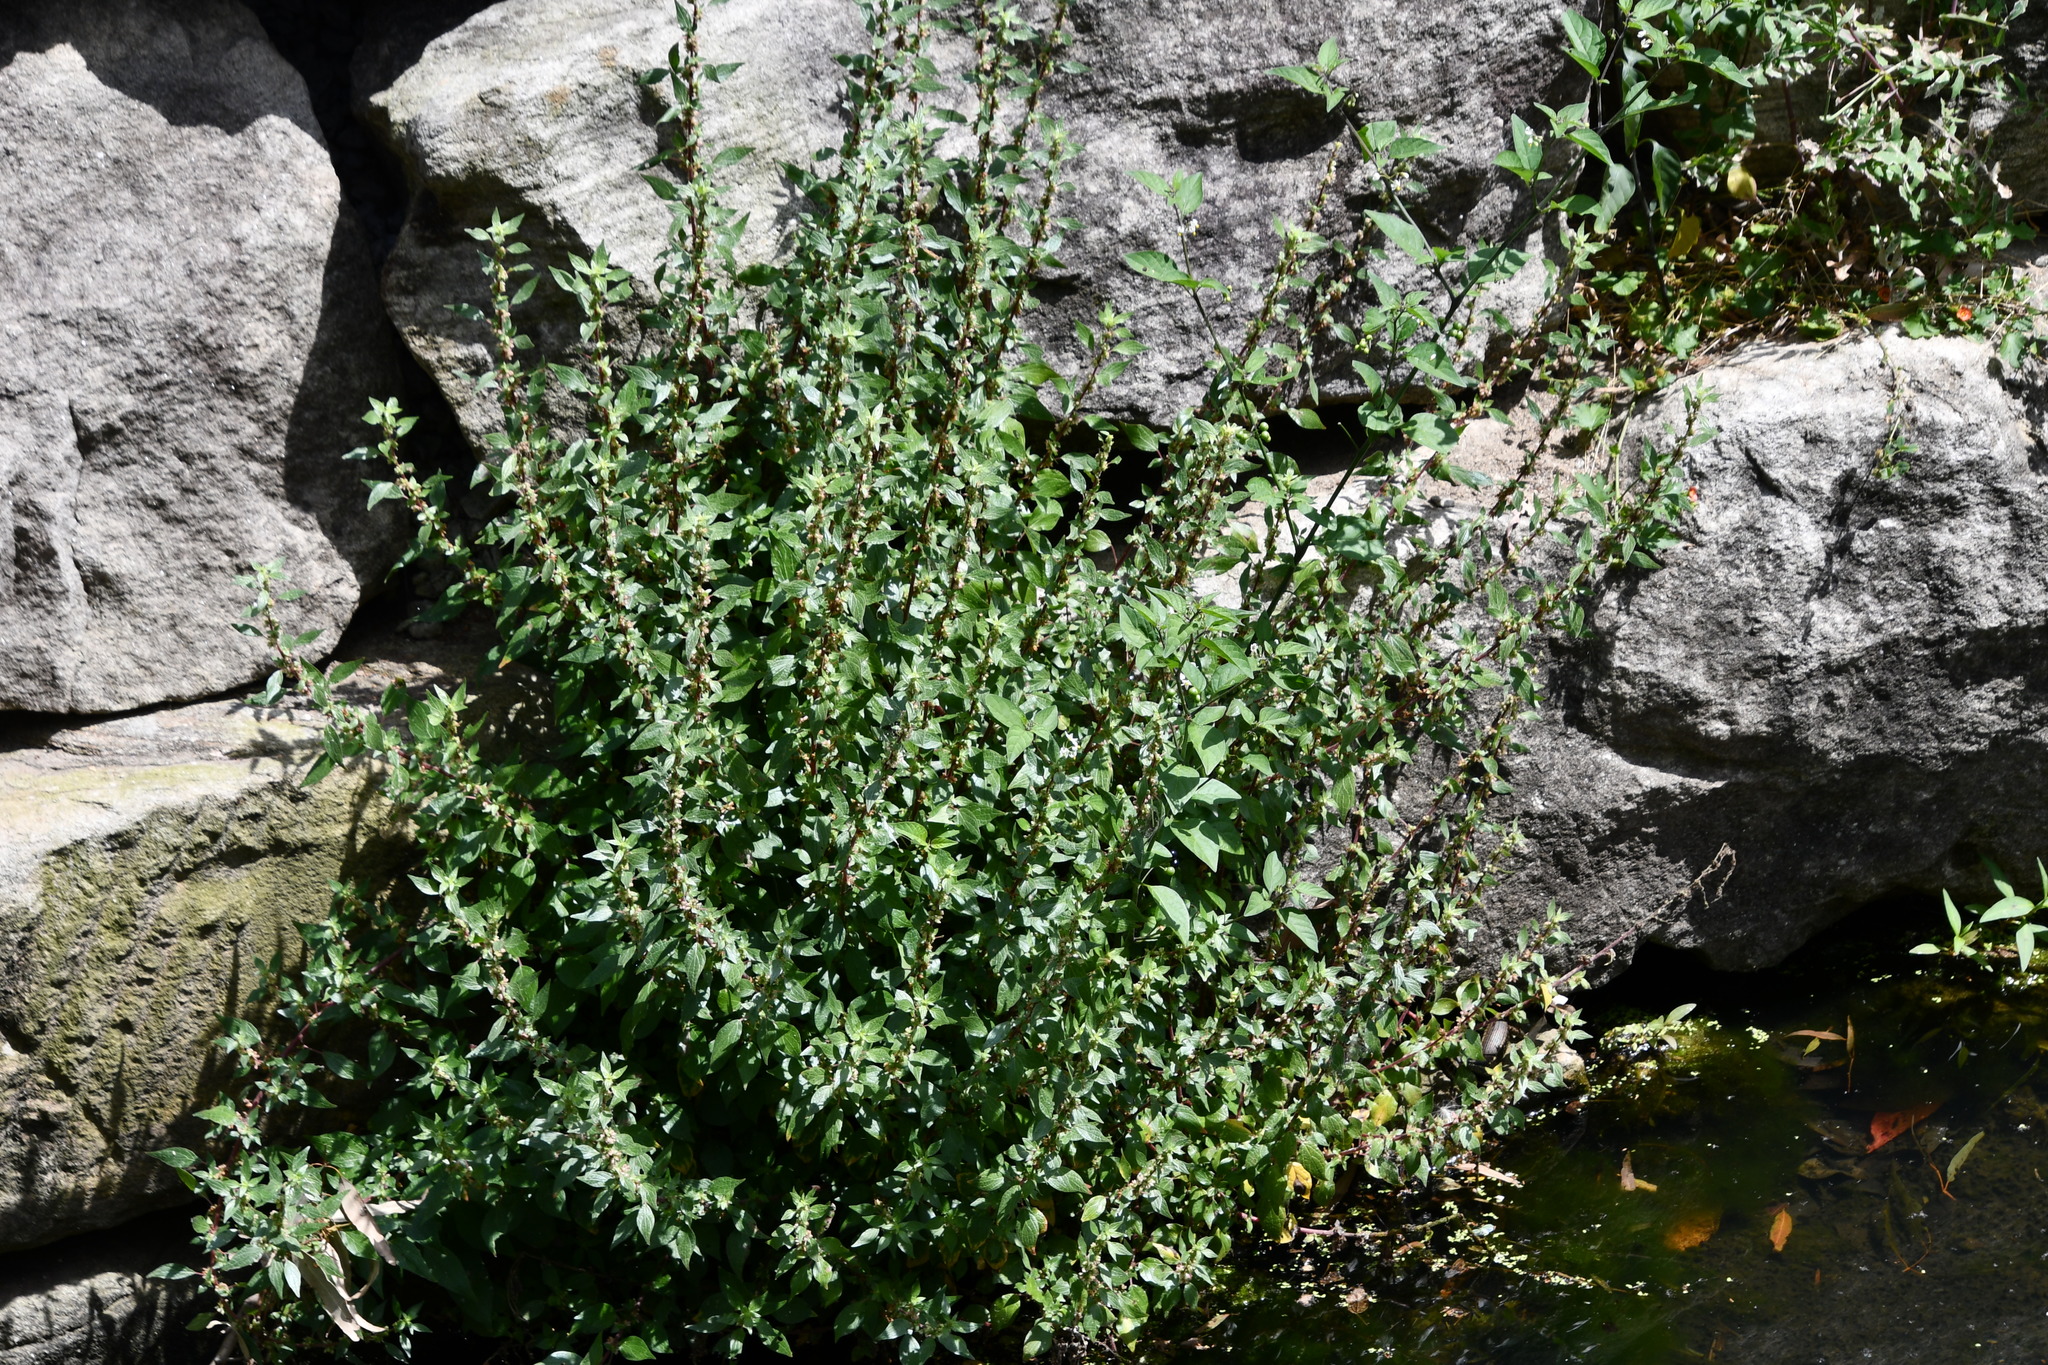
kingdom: Plantae
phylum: Tracheophyta
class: Magnoliopsida
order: Rosales
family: Urticaceae
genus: Parietaria
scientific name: Parietaria judaica
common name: Pellitory-of-the-wall
